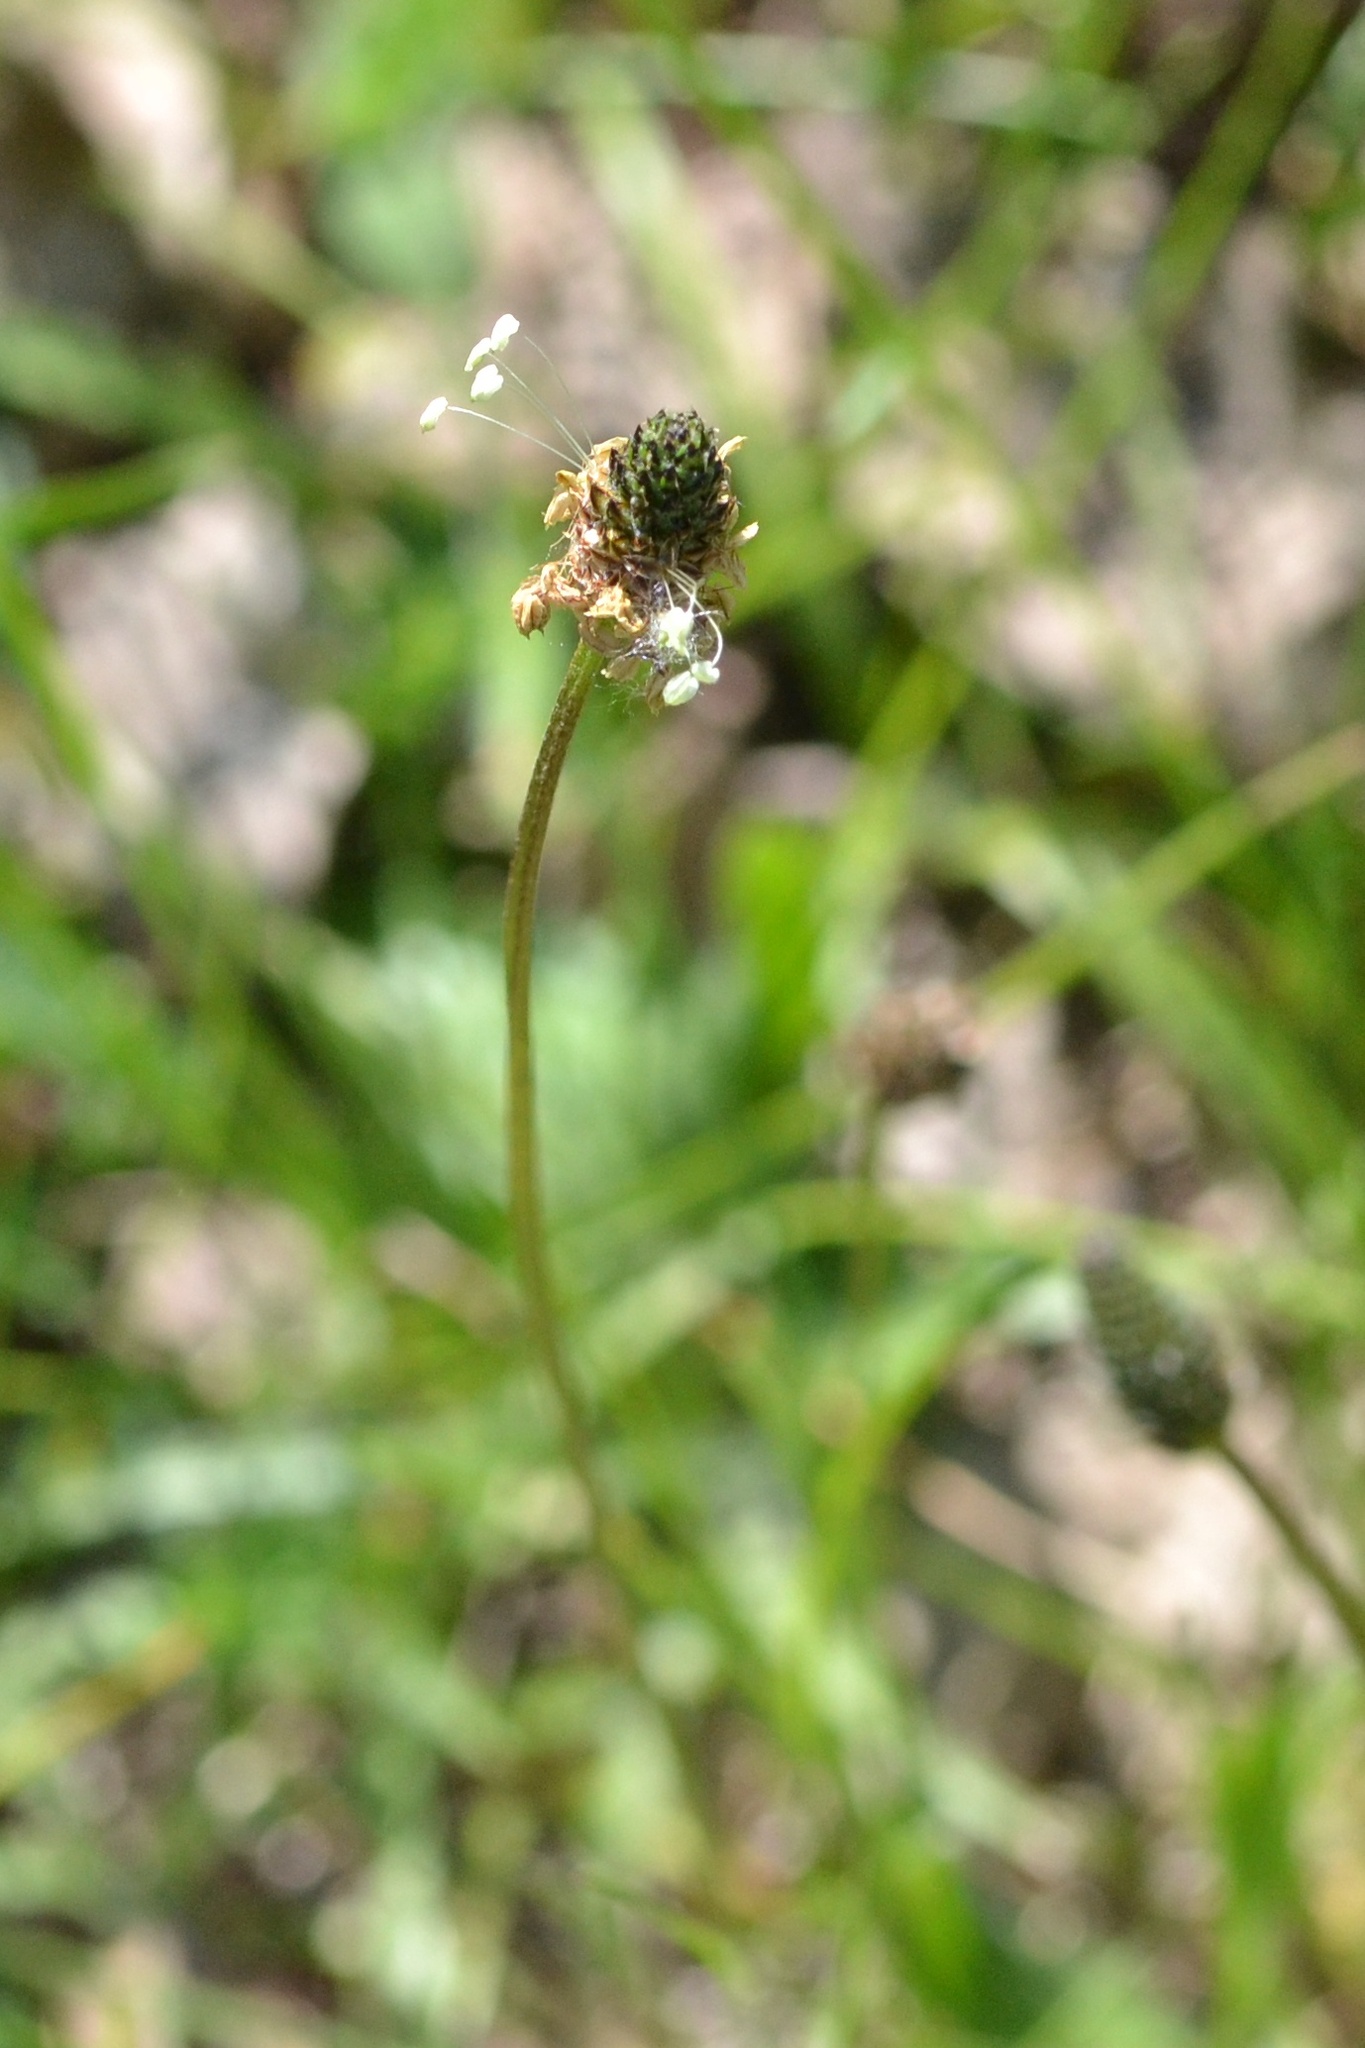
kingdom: Plantae
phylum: Tracheophyta
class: Magnoliopsida
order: Lamiales
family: Plantaginaceae
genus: Plantago
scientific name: Plantago lanceolata
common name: Ribwort plantain
